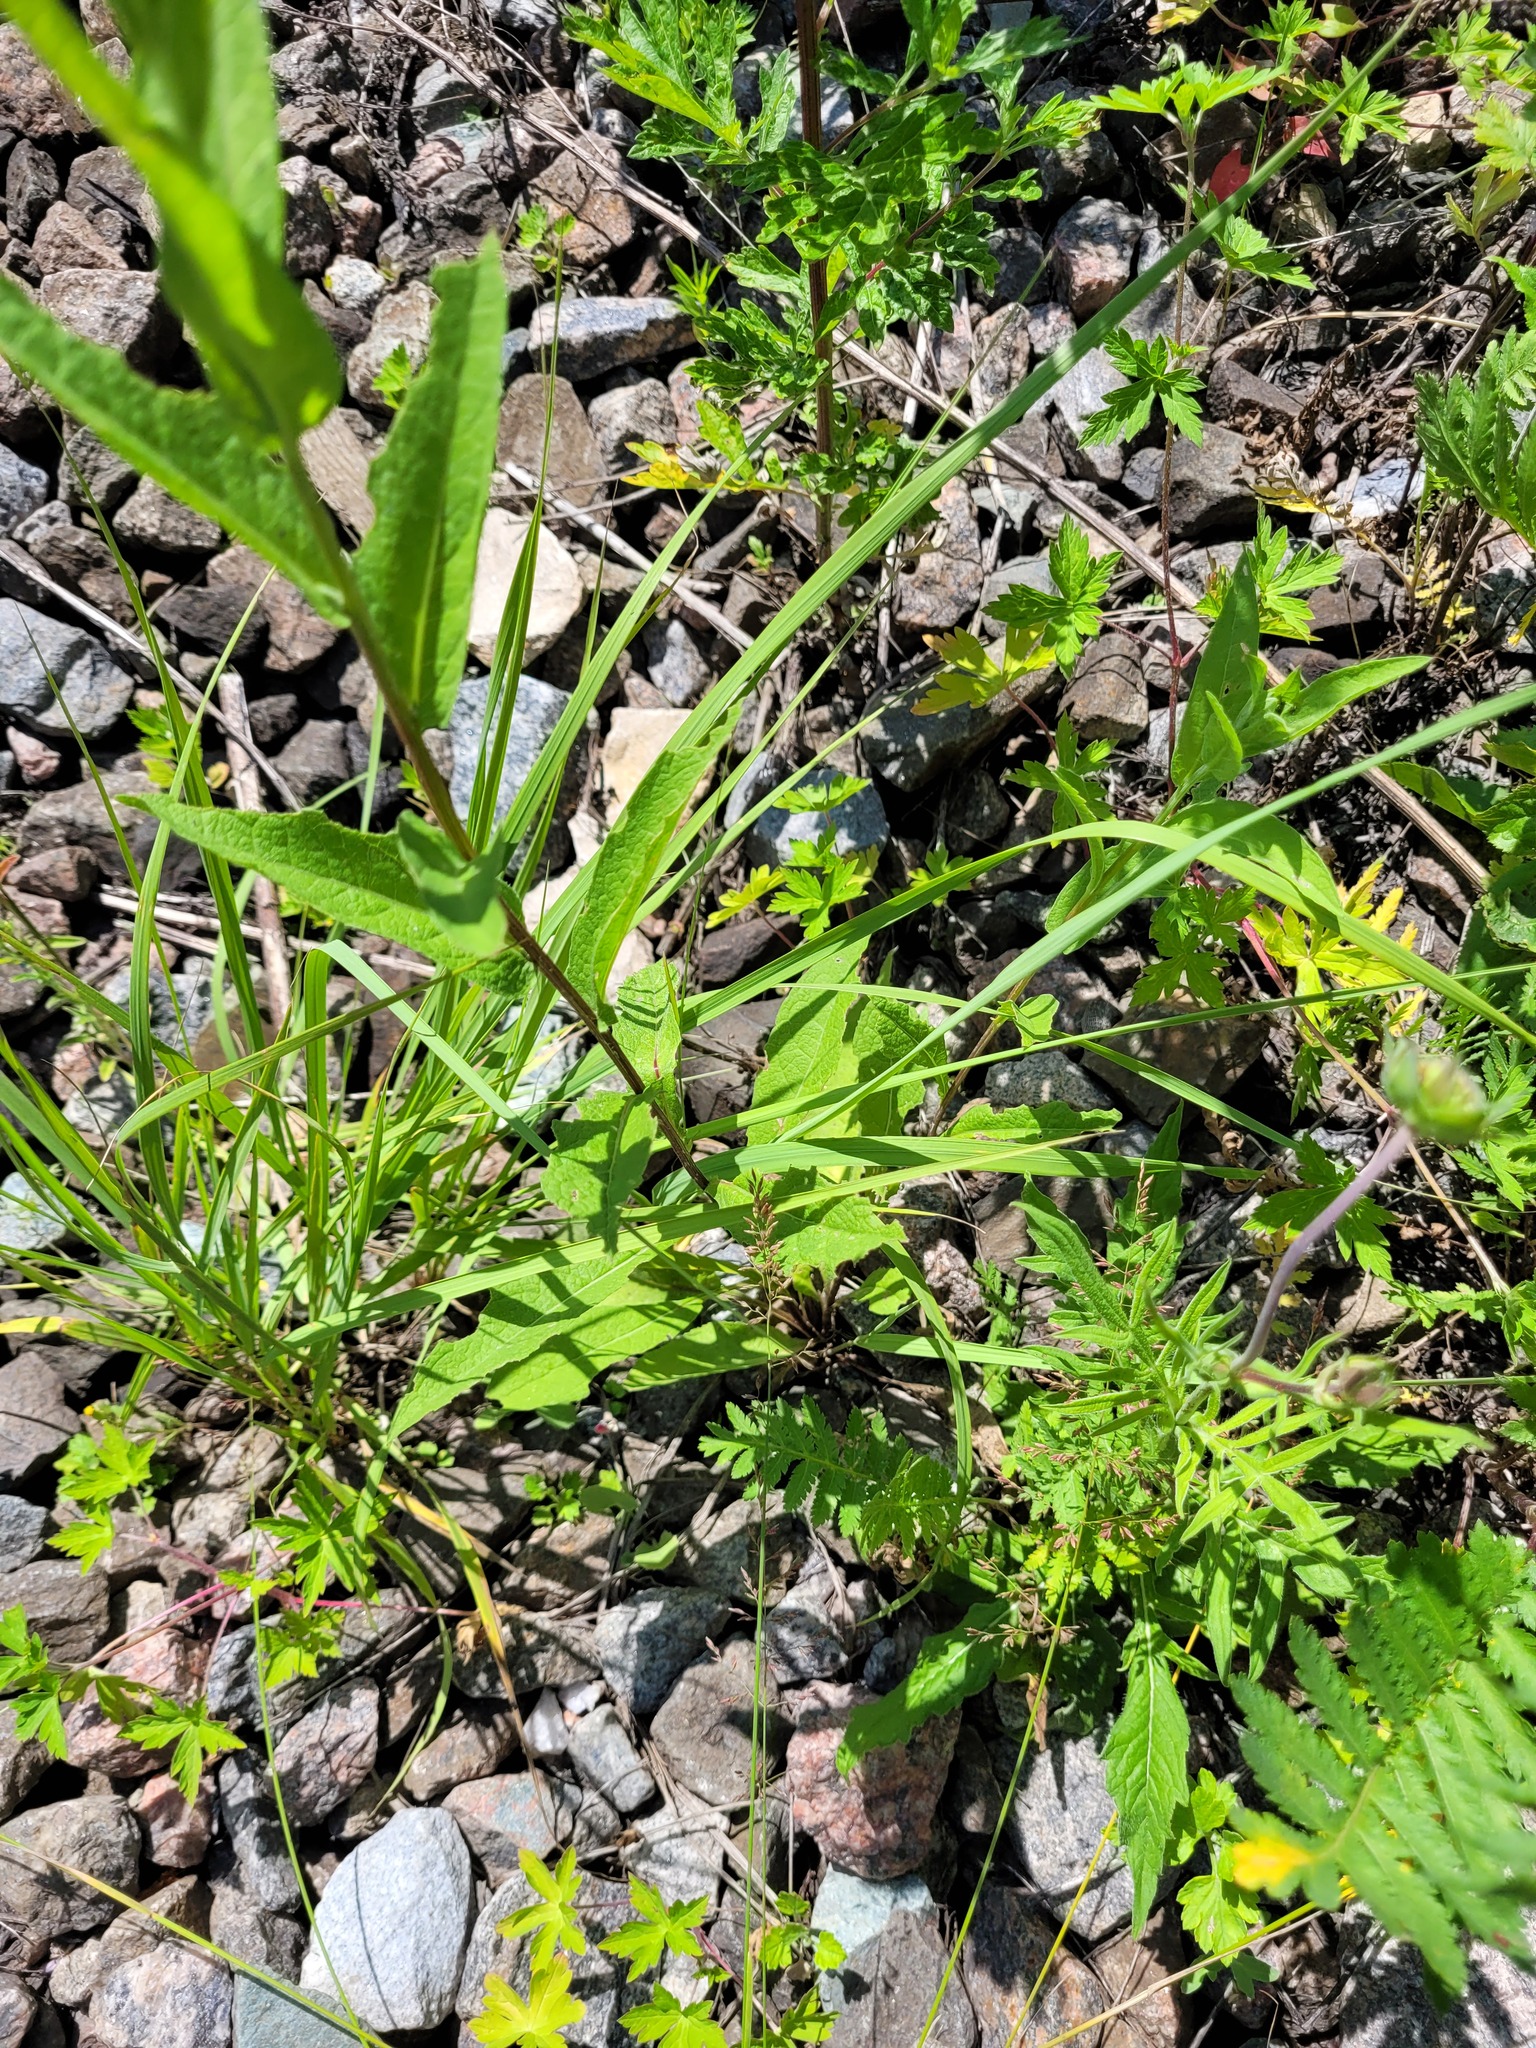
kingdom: Plantae
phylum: Tracheophyta
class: Magnoliopsida
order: Asterales
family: Asteraceae
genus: Centaurea
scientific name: Centaurea phrygia
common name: Wig knapweed
